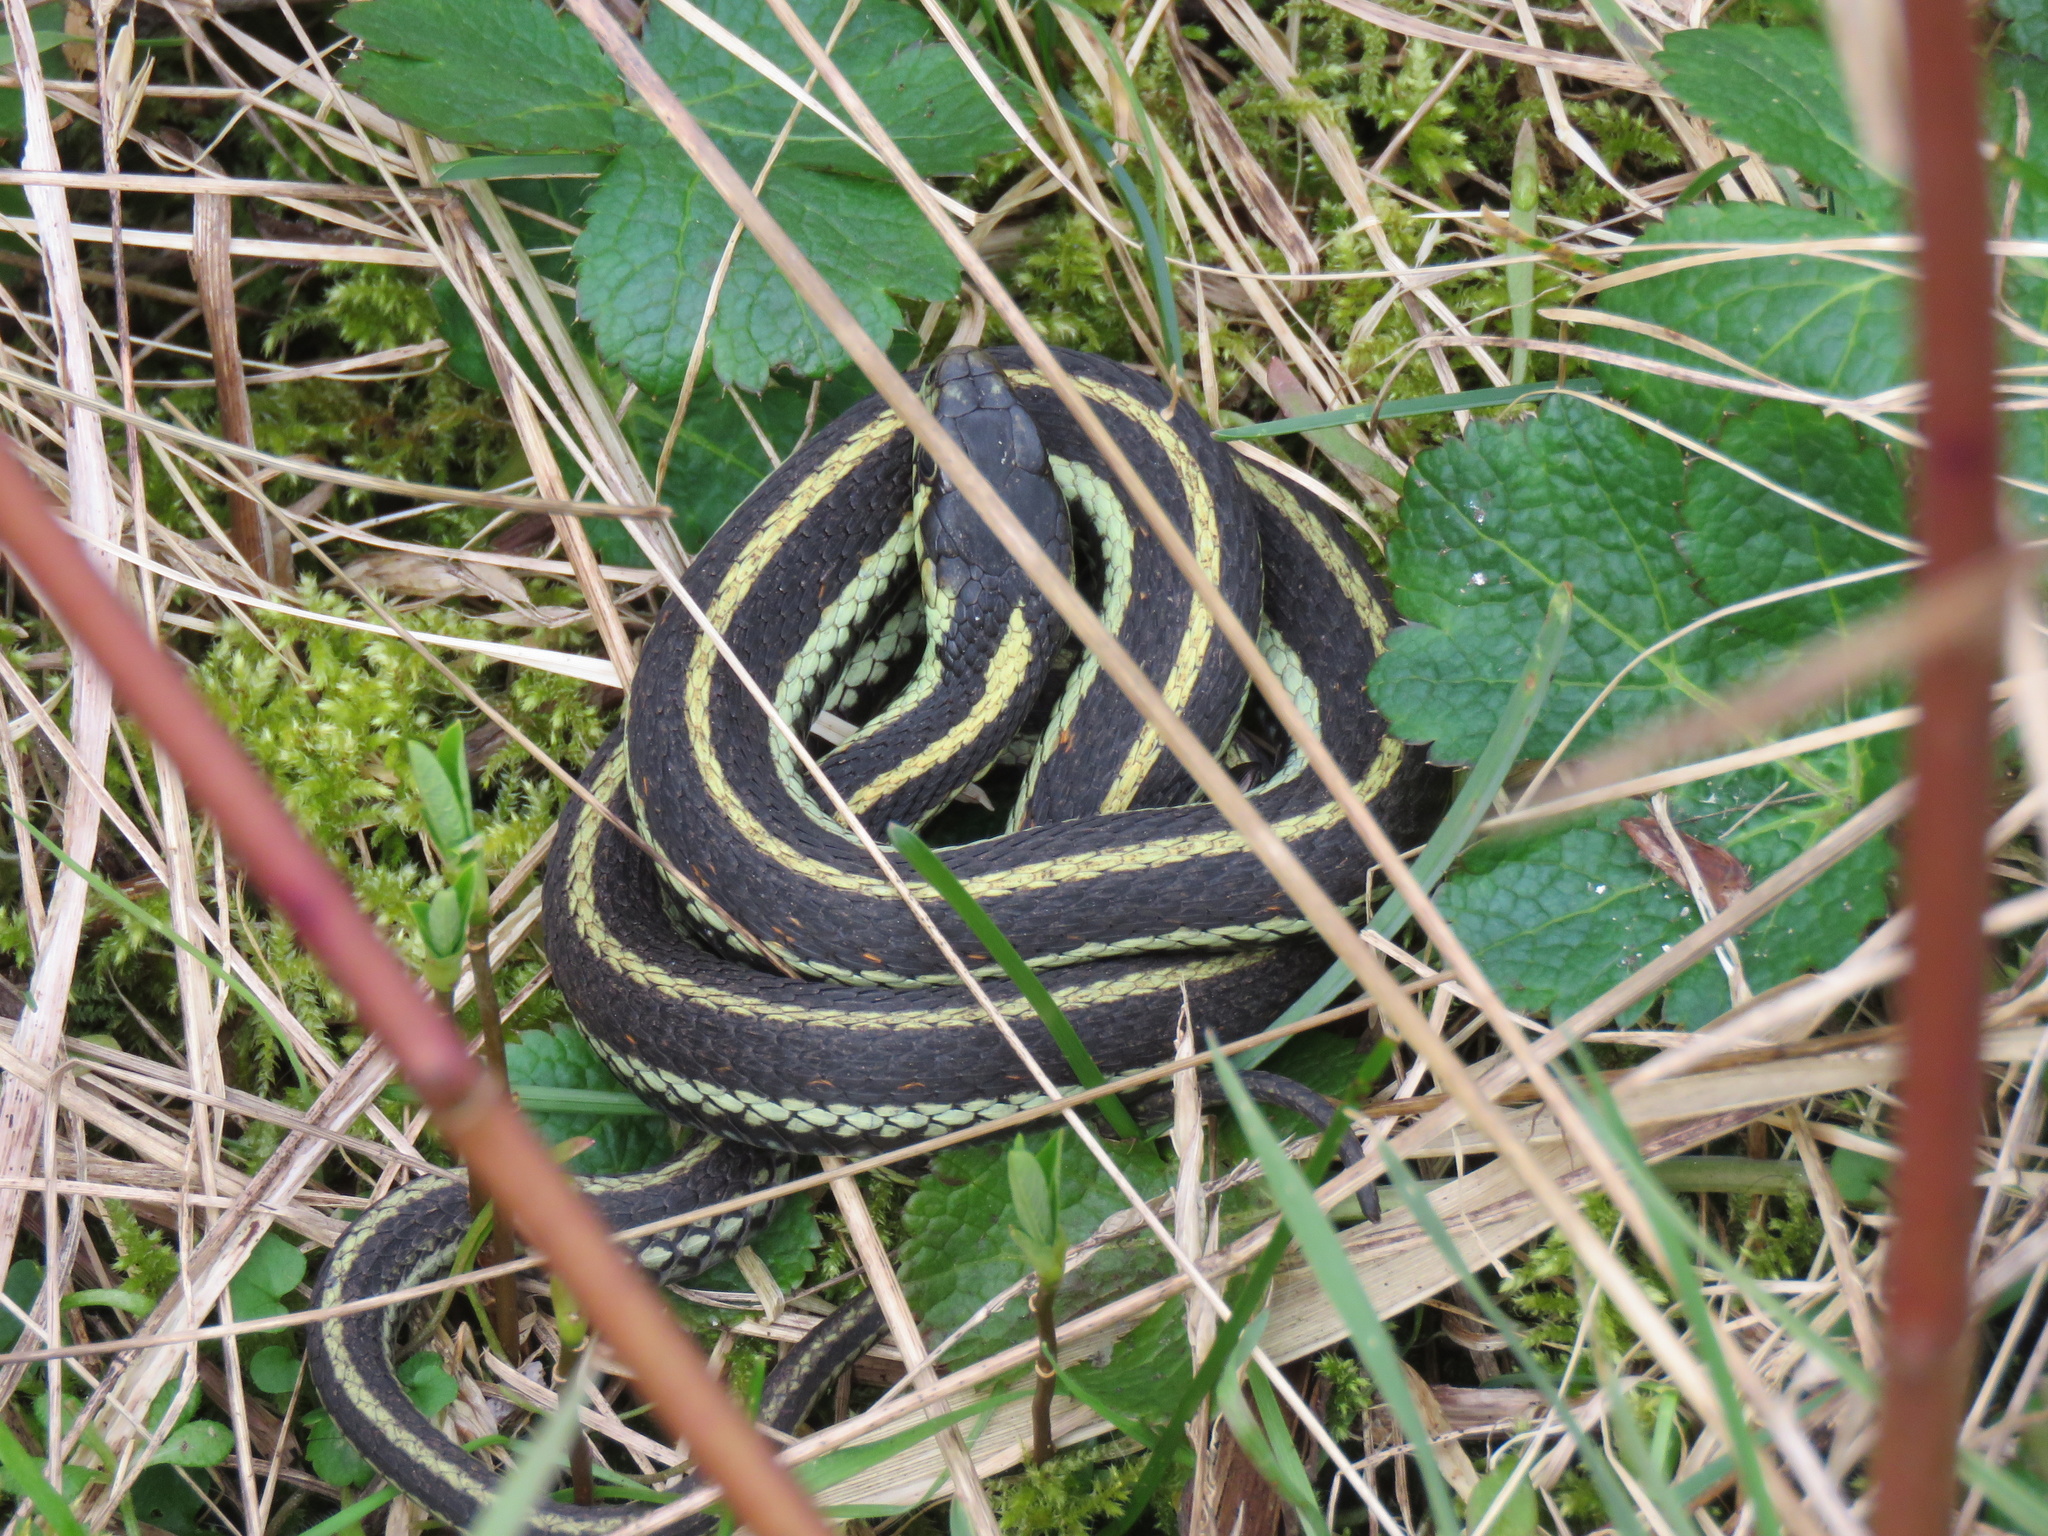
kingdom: Animalia
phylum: Chordata
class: Squamata
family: Colubridae
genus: Thamnophis
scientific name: Thamnophis sirtalis
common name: Common garter snake
